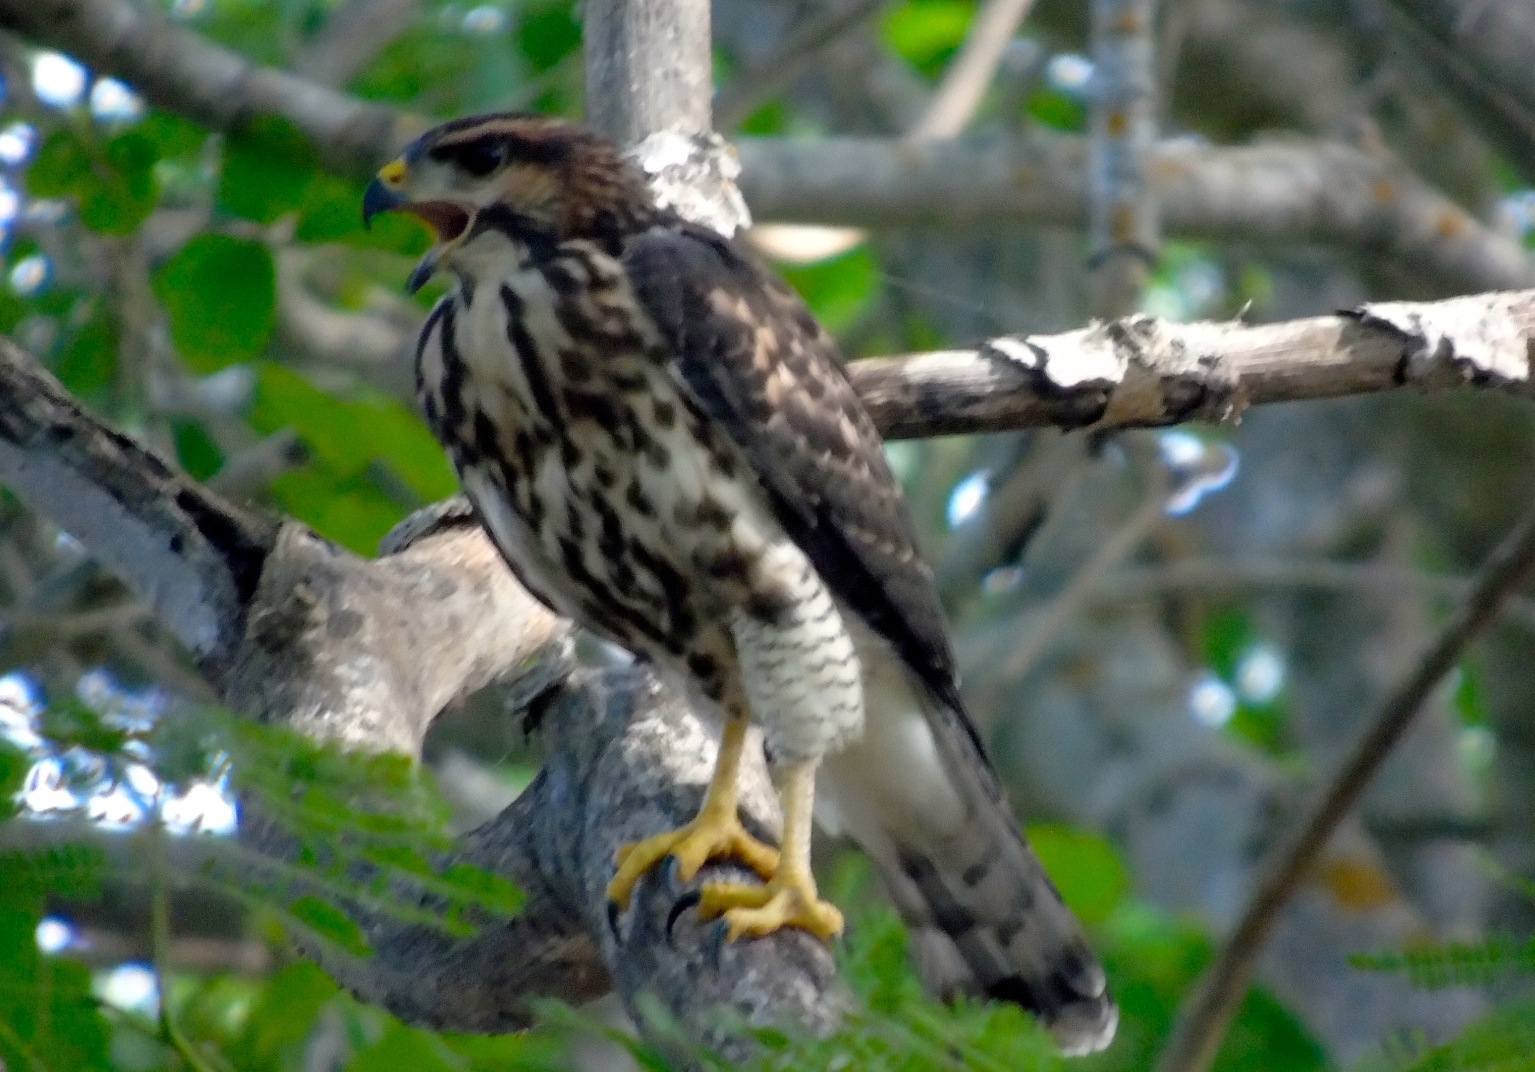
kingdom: Animalia
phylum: Chordata
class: Aves
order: Accipitriformes
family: Accipitridae
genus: Buteo
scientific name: Buteo nitidus
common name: Grey-lined hawk
